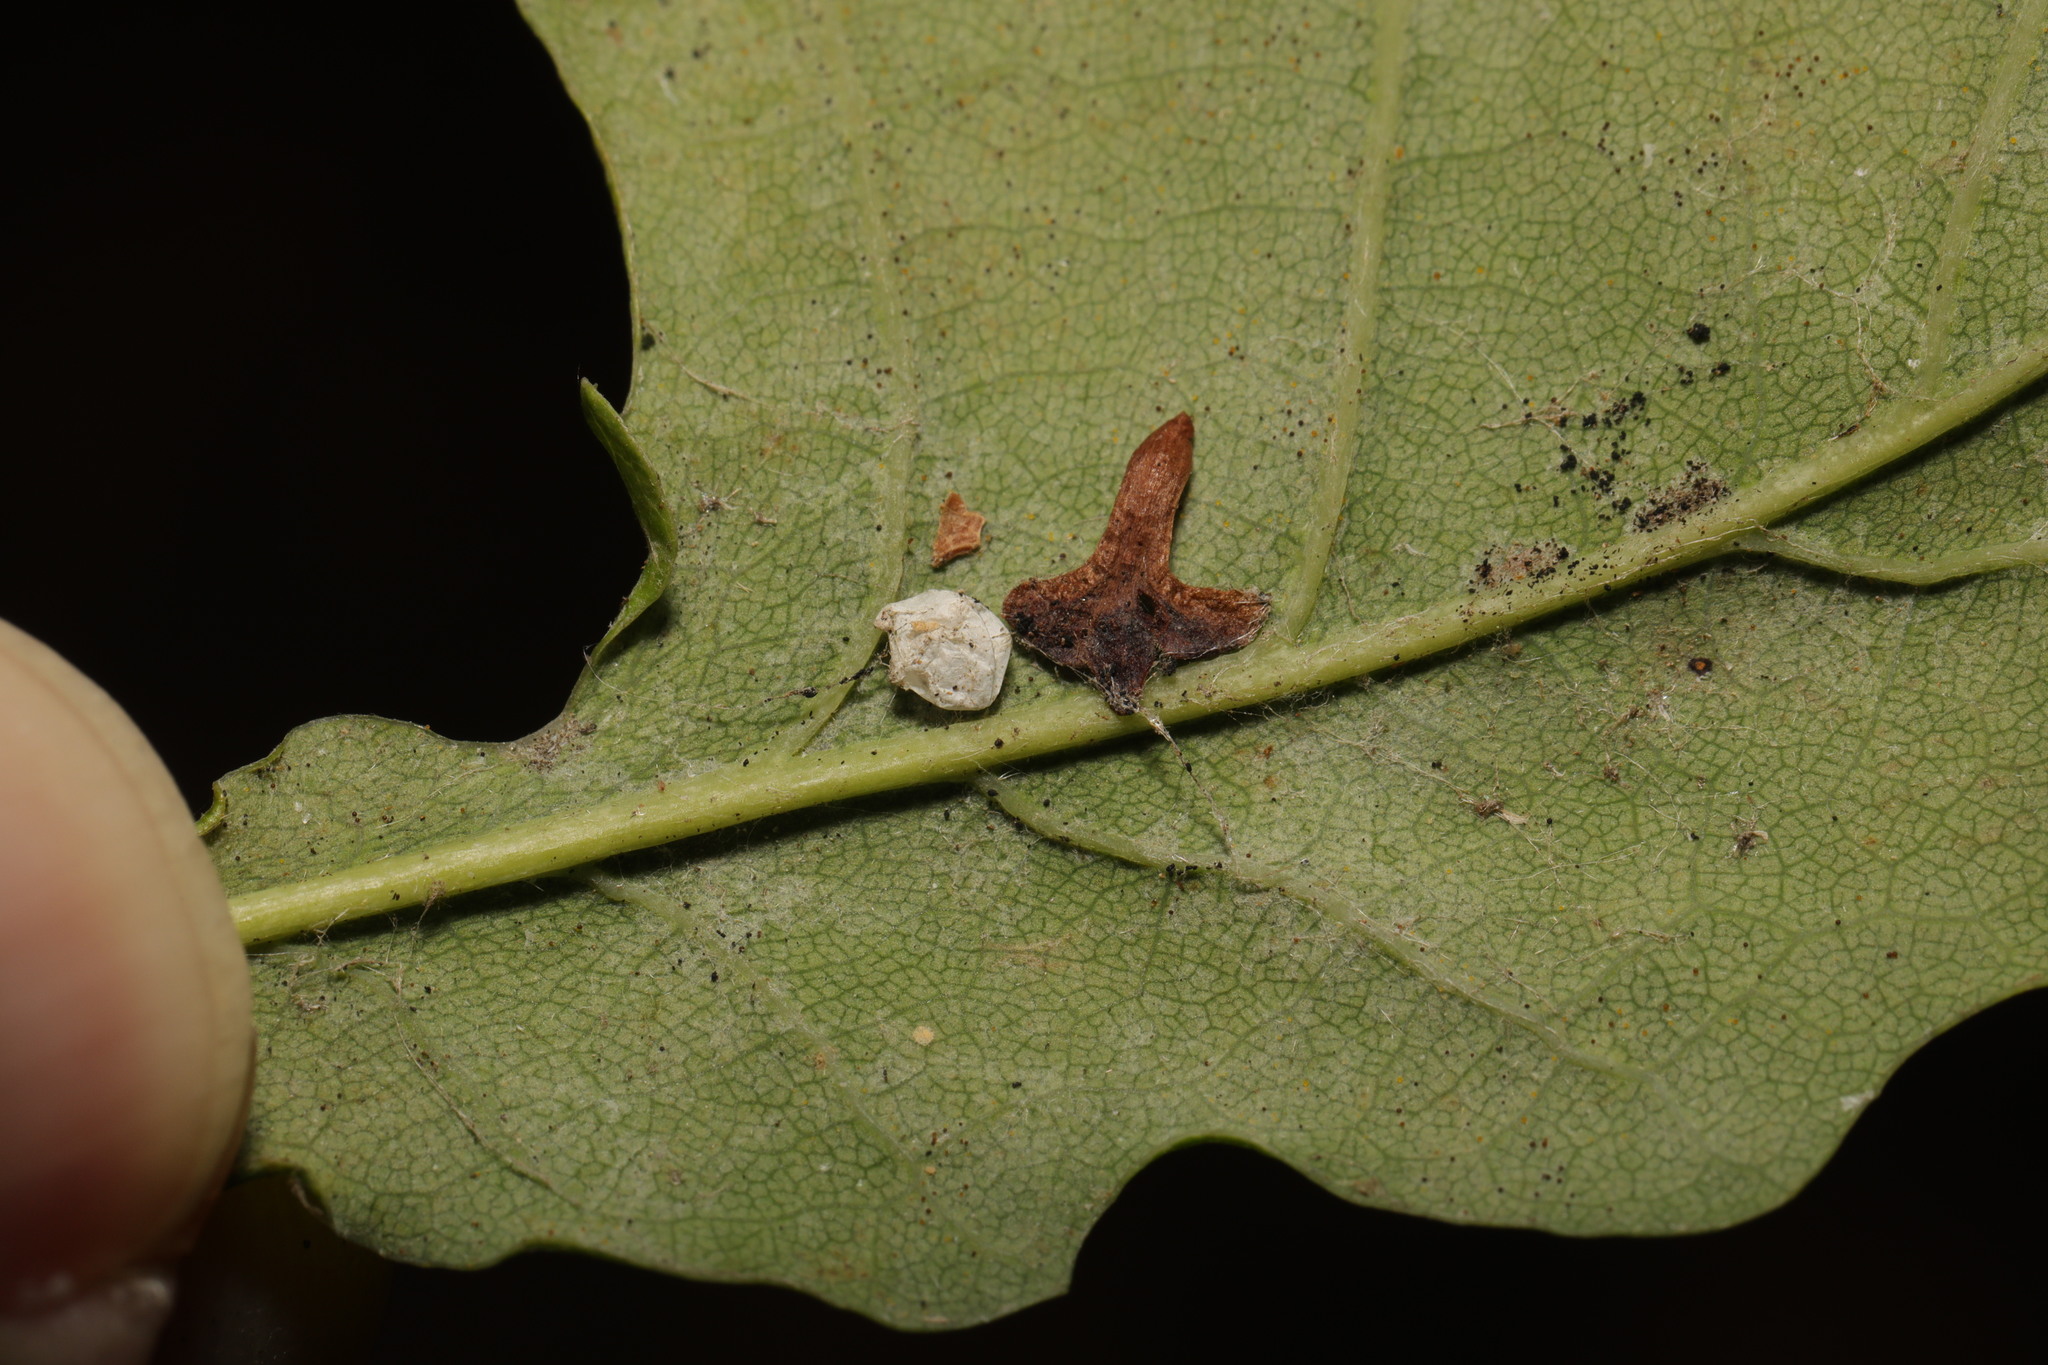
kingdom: Animalia
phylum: Arthropoda
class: Arachnida
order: Araneae
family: Theridiidae
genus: Paidiscura
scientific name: Paidiscura pallens
